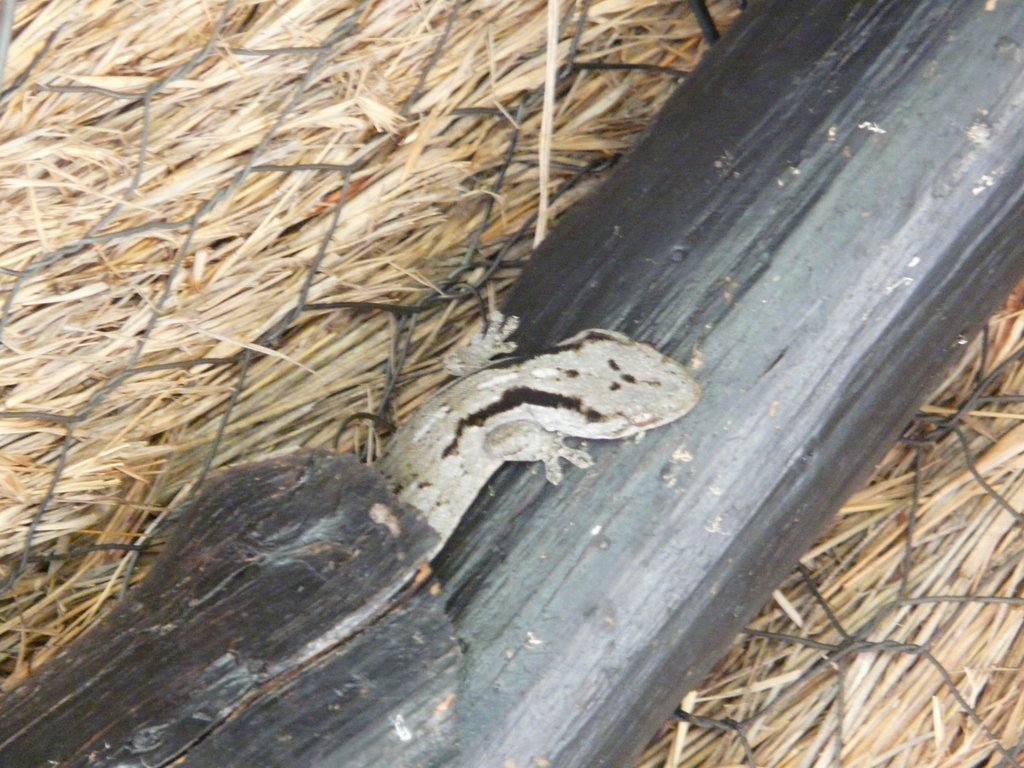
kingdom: Animalia
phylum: Chordata
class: Squamata
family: Gekkonidae
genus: Homopholis
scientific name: Homopholis arnoldi
